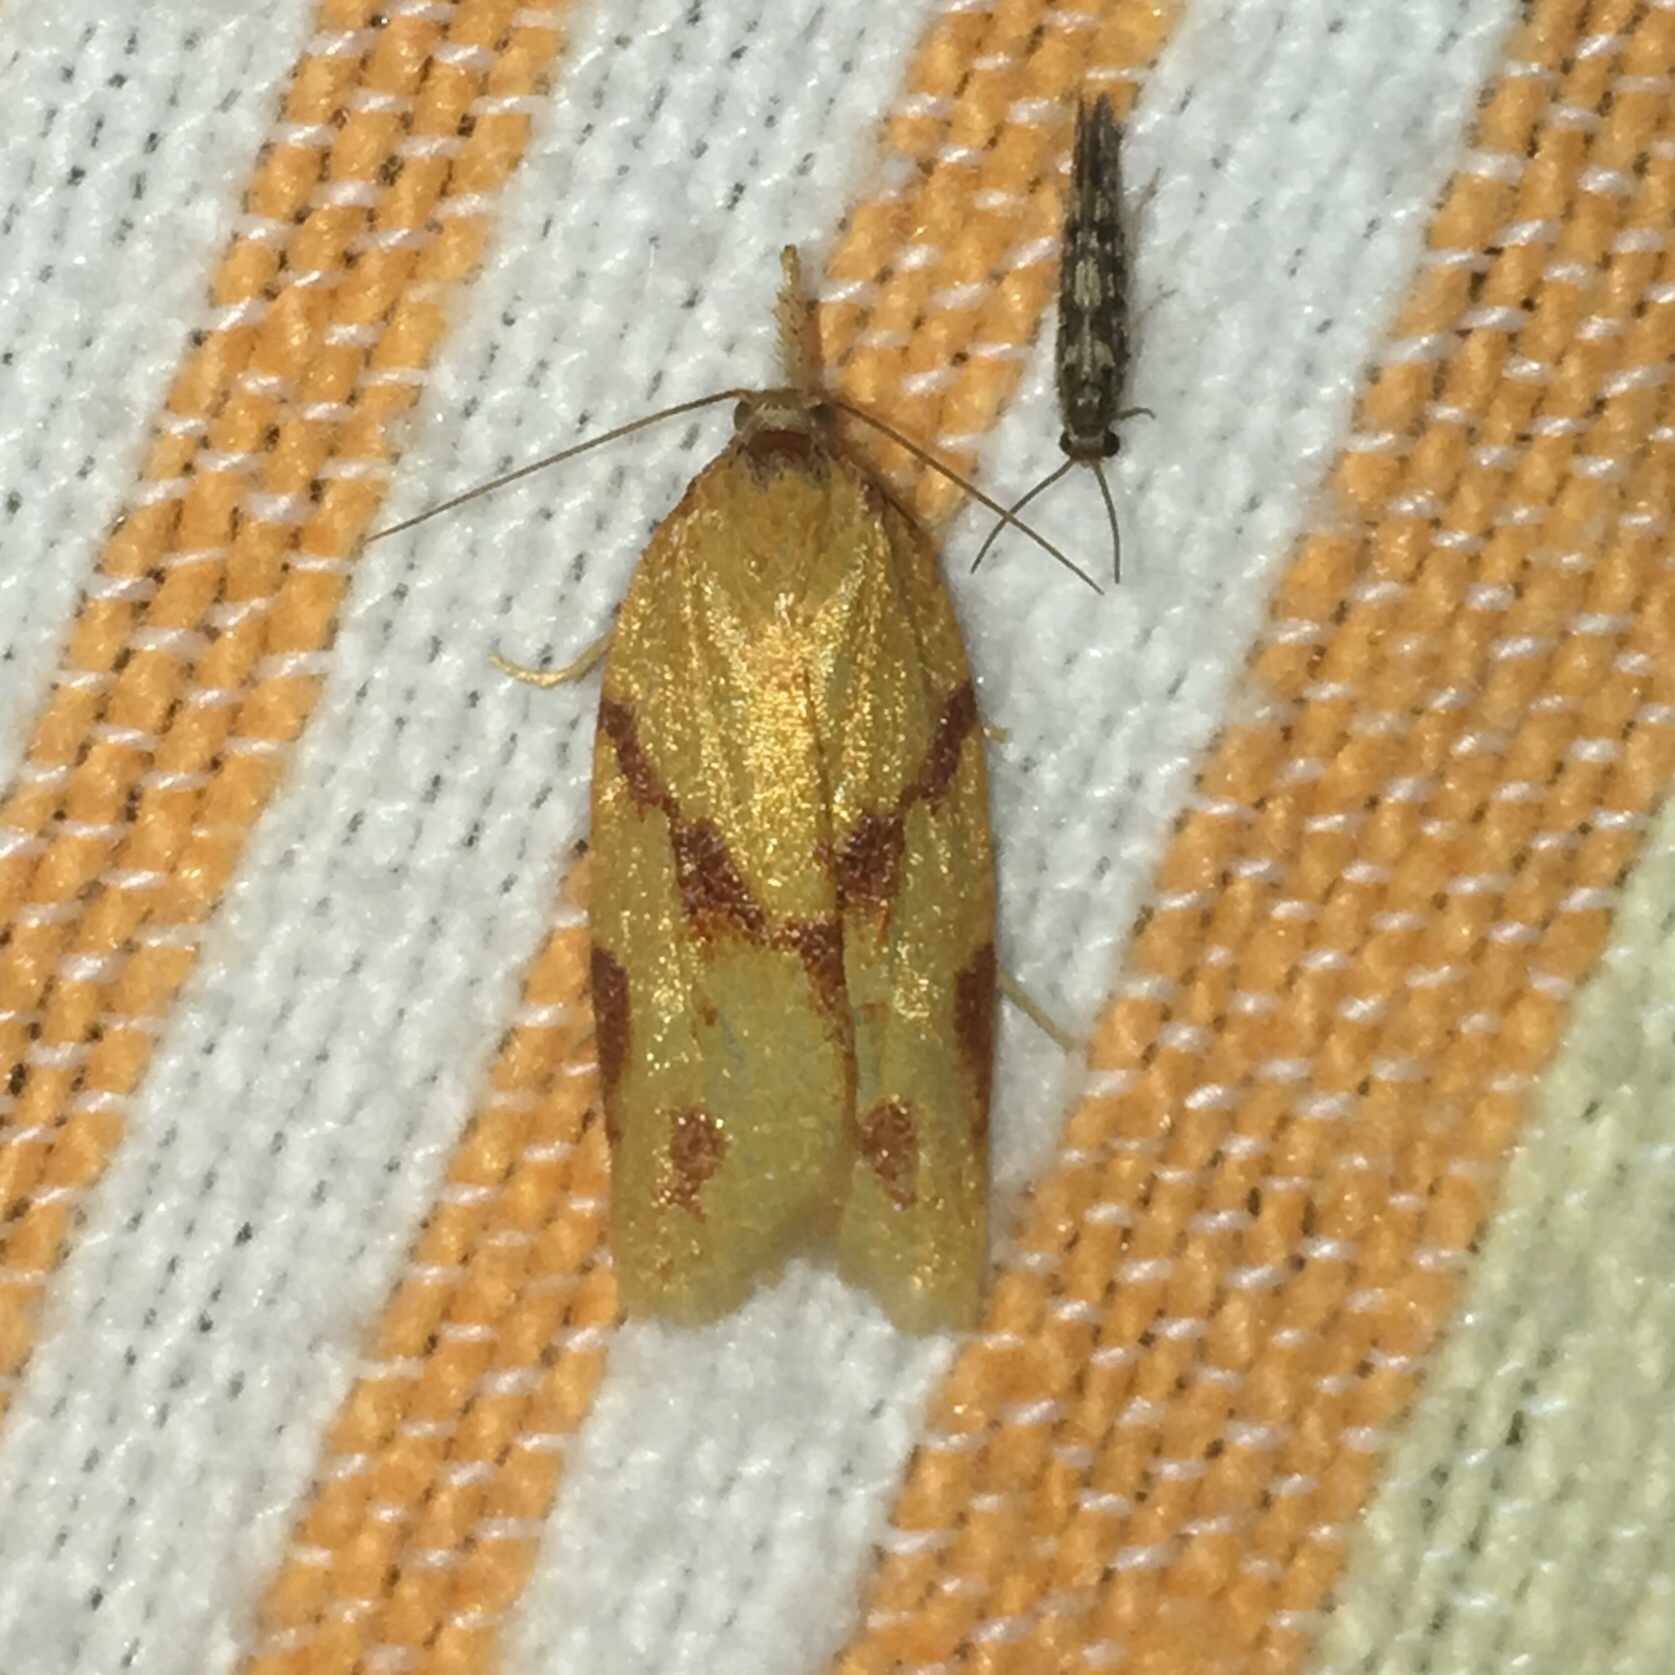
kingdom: Animalia
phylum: Arthropoda
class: Insecta
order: Lepidoptera
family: Tortricidae
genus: Sparganothis
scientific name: Sparganothis unifasciana
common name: One-lined sparganothis moth
